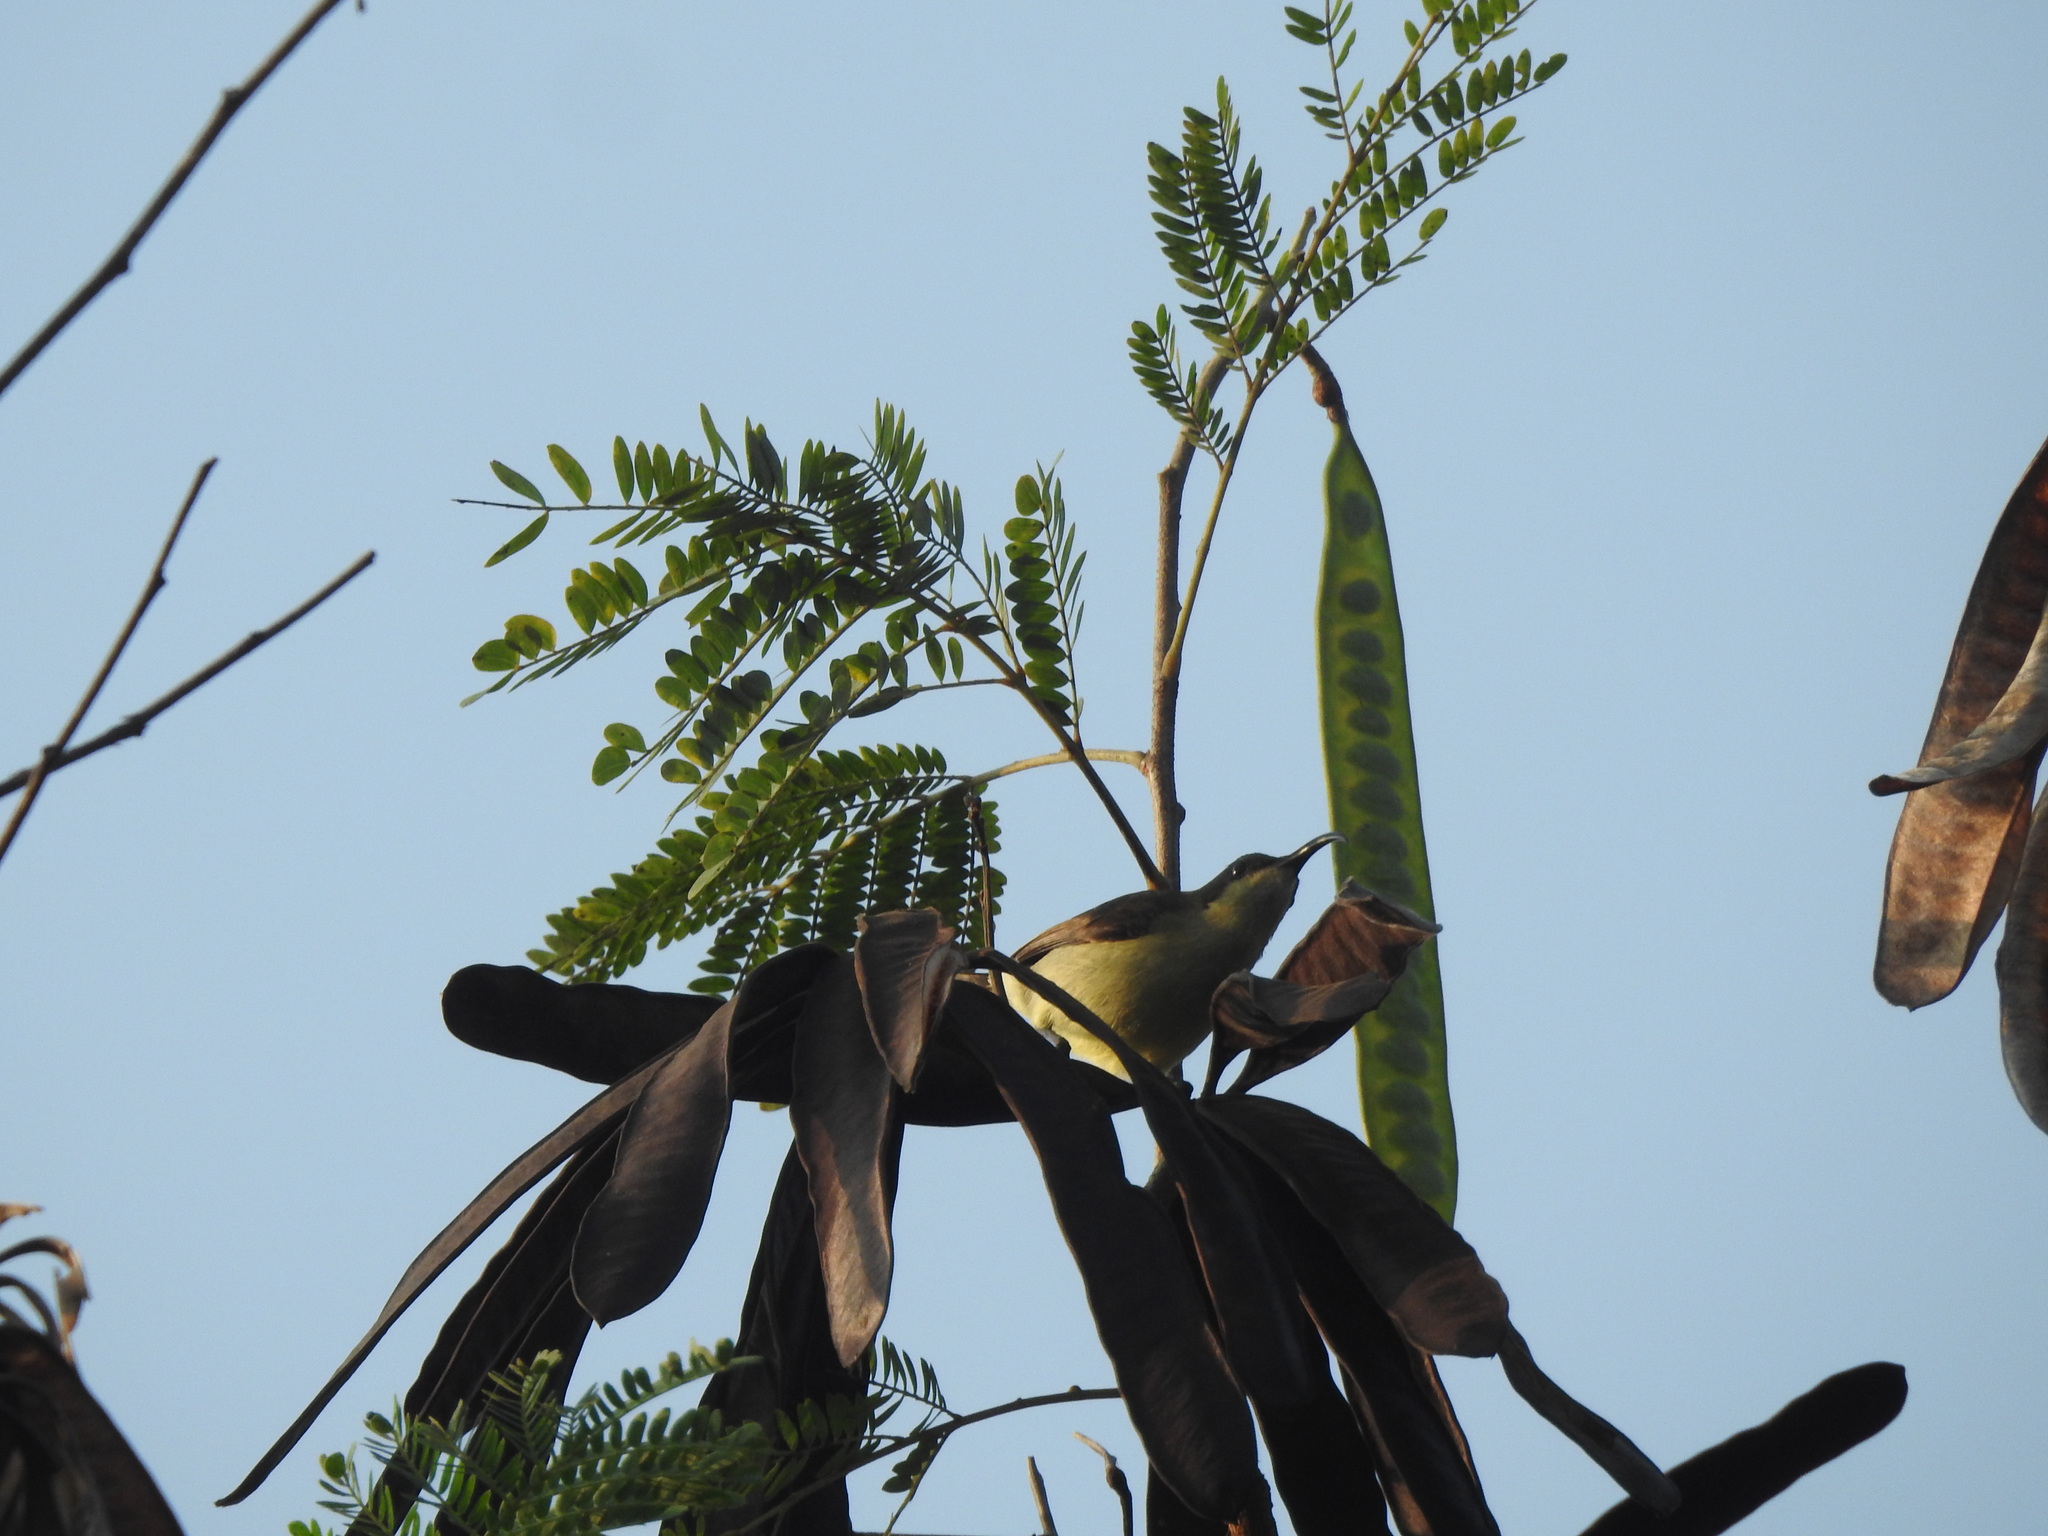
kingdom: Animalia
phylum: Chordata
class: Aves
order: Passeriformes
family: Nectariniidae
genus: Cinnyris
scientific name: Cinnyris lotenius
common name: Loten's sunbird
